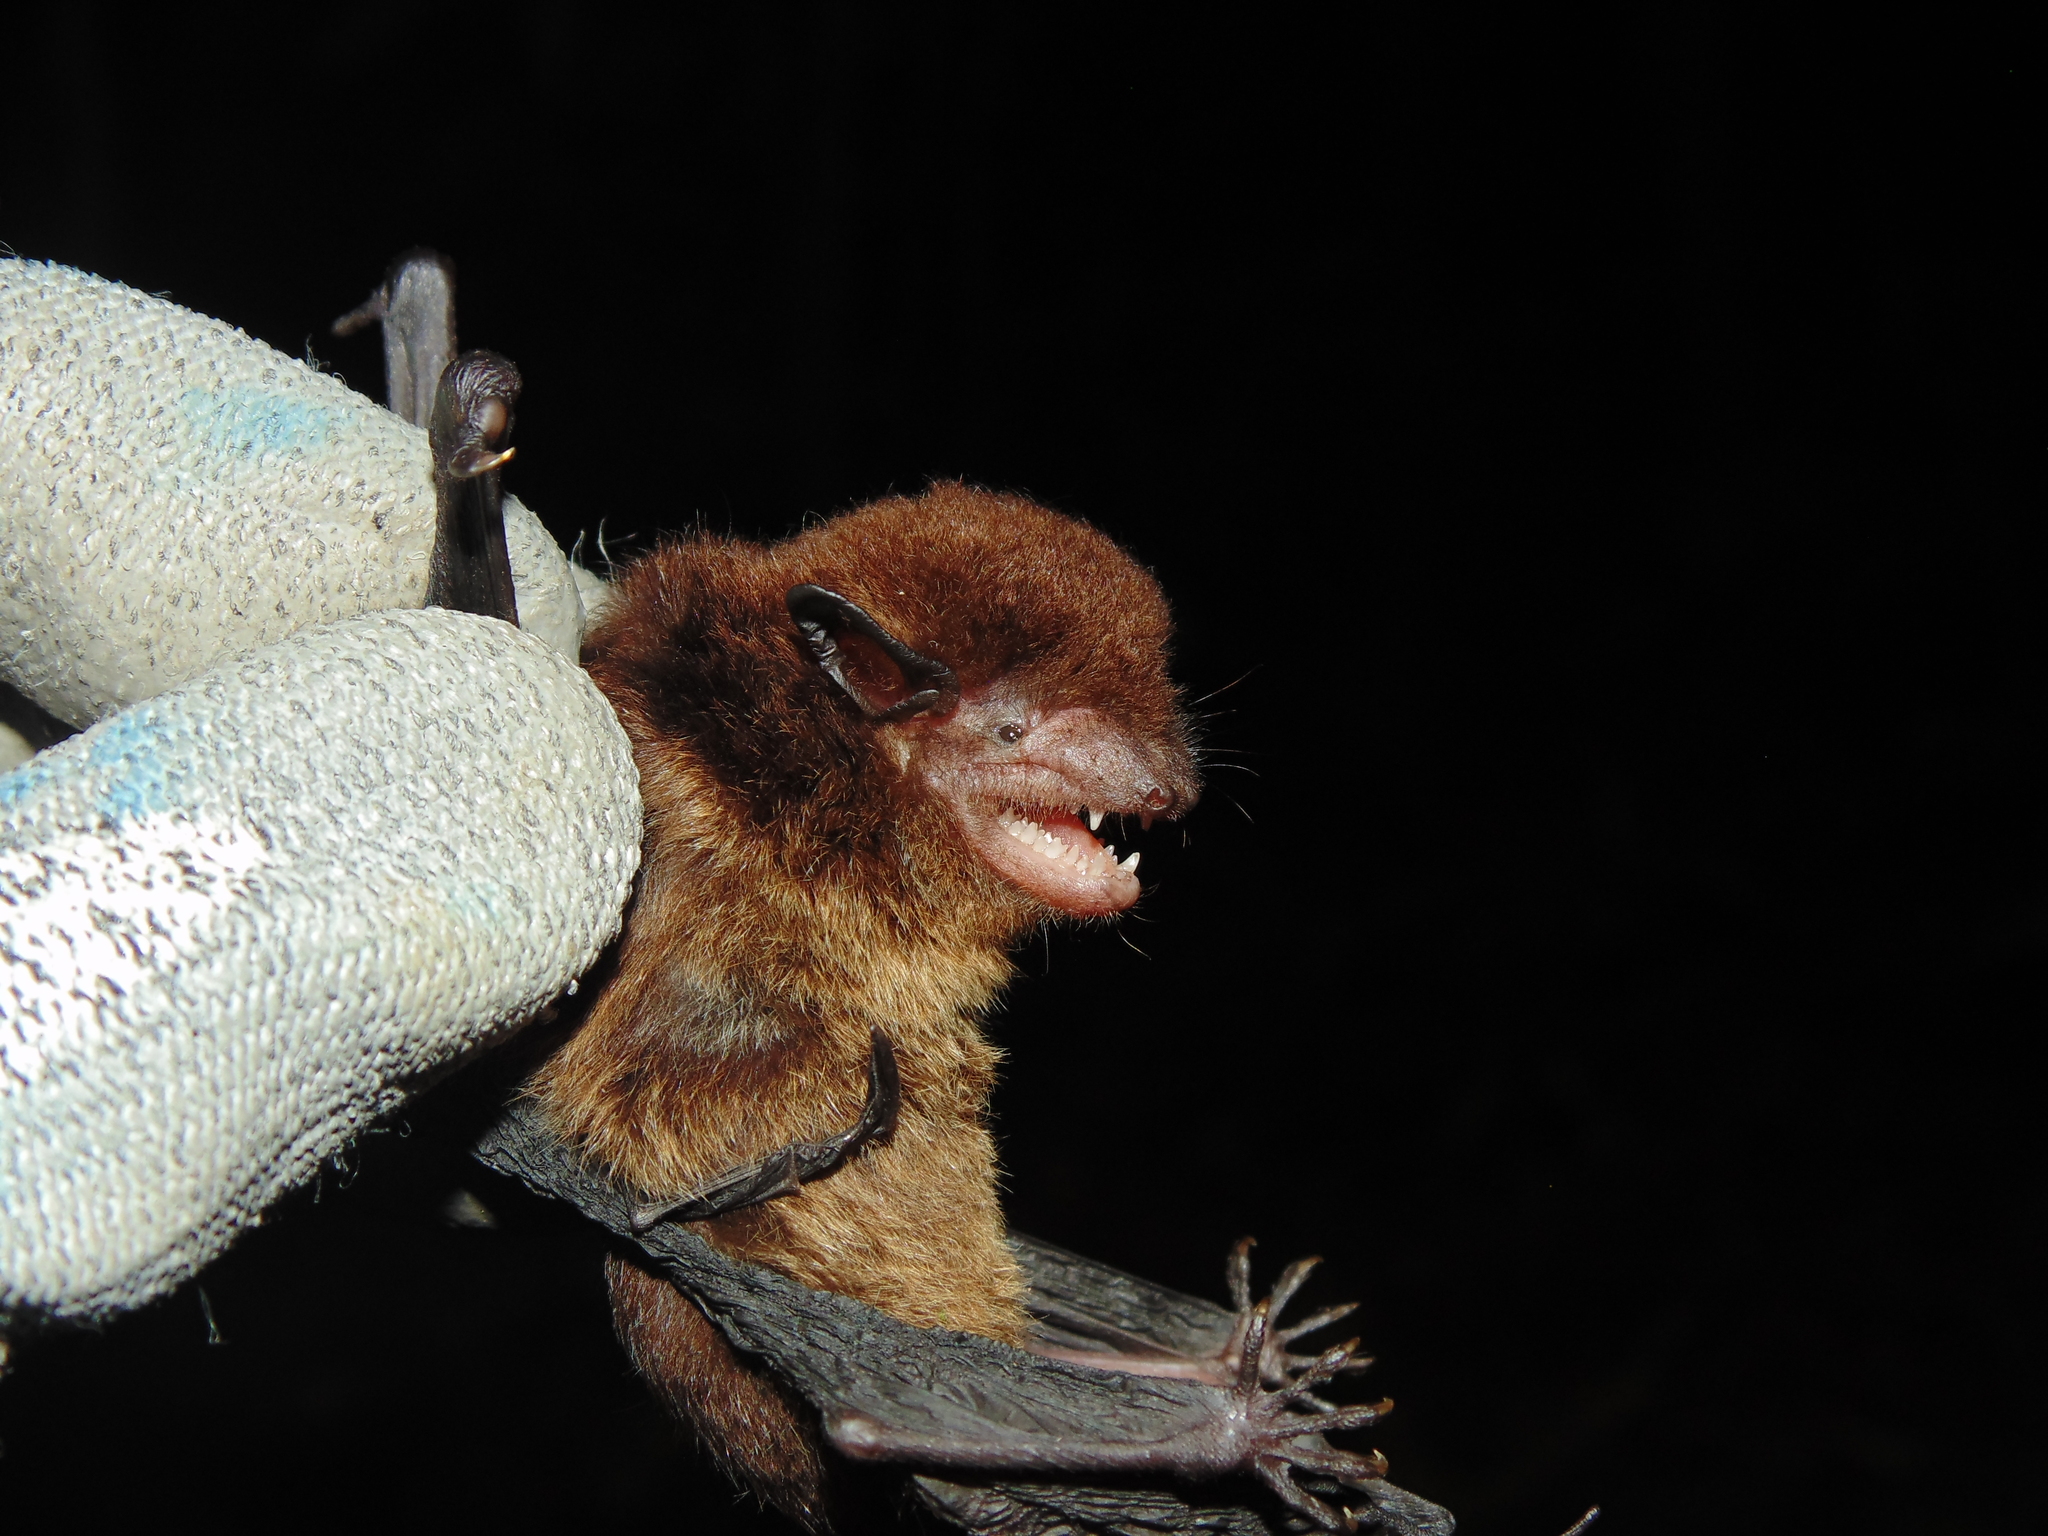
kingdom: Animalia
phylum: Chordata
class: Mammalia
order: Chiroptera
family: Vespertilionidae
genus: Eptesicus
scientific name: Eptesicus brasiliensis
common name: Brazilian brown bat
